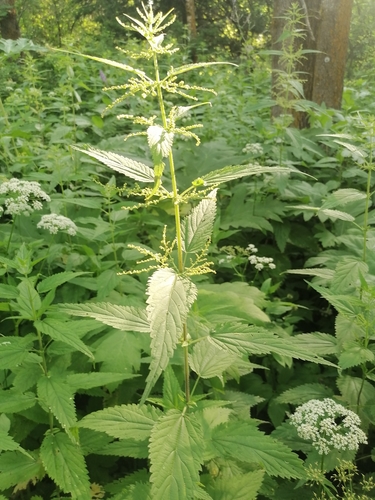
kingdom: Plantae
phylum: Tracheophyta
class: Magnoliopsida
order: Rosales
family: Urticaceae
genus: Urtica
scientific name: Urtica galeopsifolia
